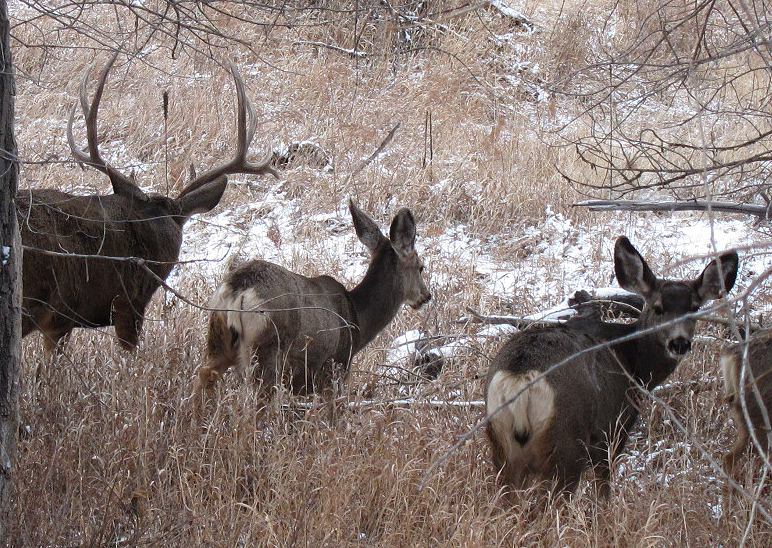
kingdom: Animalia
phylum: Chordata
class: Mammalia
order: Artiodactyla
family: Cervidae
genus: Odocoileus
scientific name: Odocoileus hemionus
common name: Mule deer
